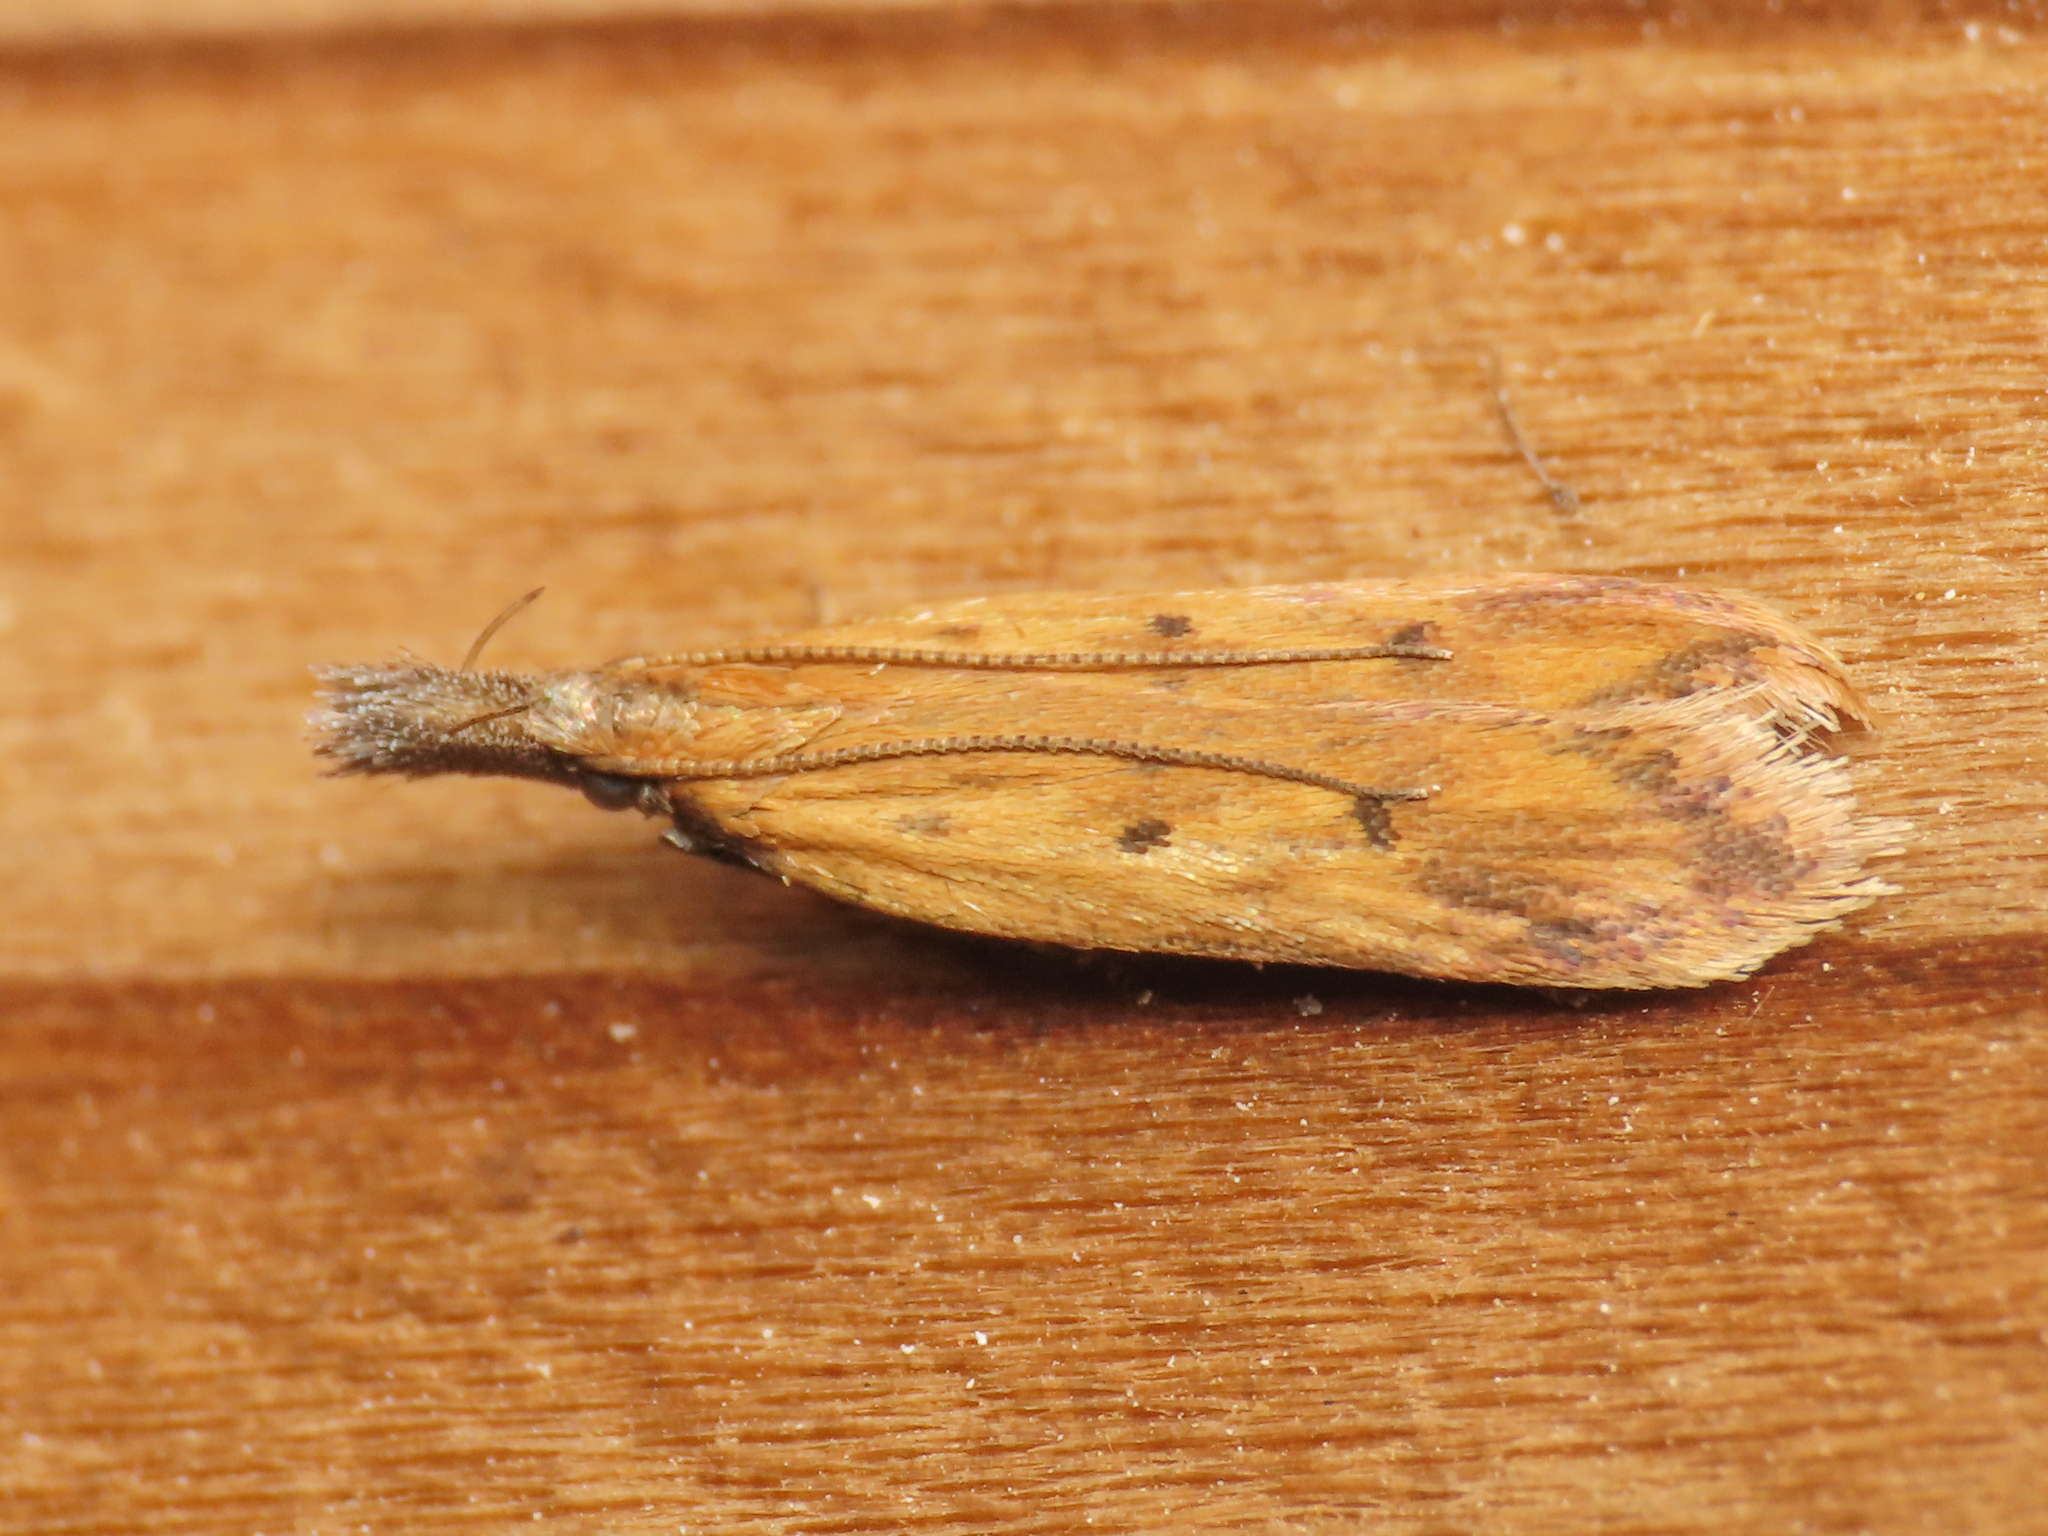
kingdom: Animalia
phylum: Arthropoda
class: Insecta
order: Lepidoptera
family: Gelechiidae
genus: Dichomeris
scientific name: Dichomeris limosellus
